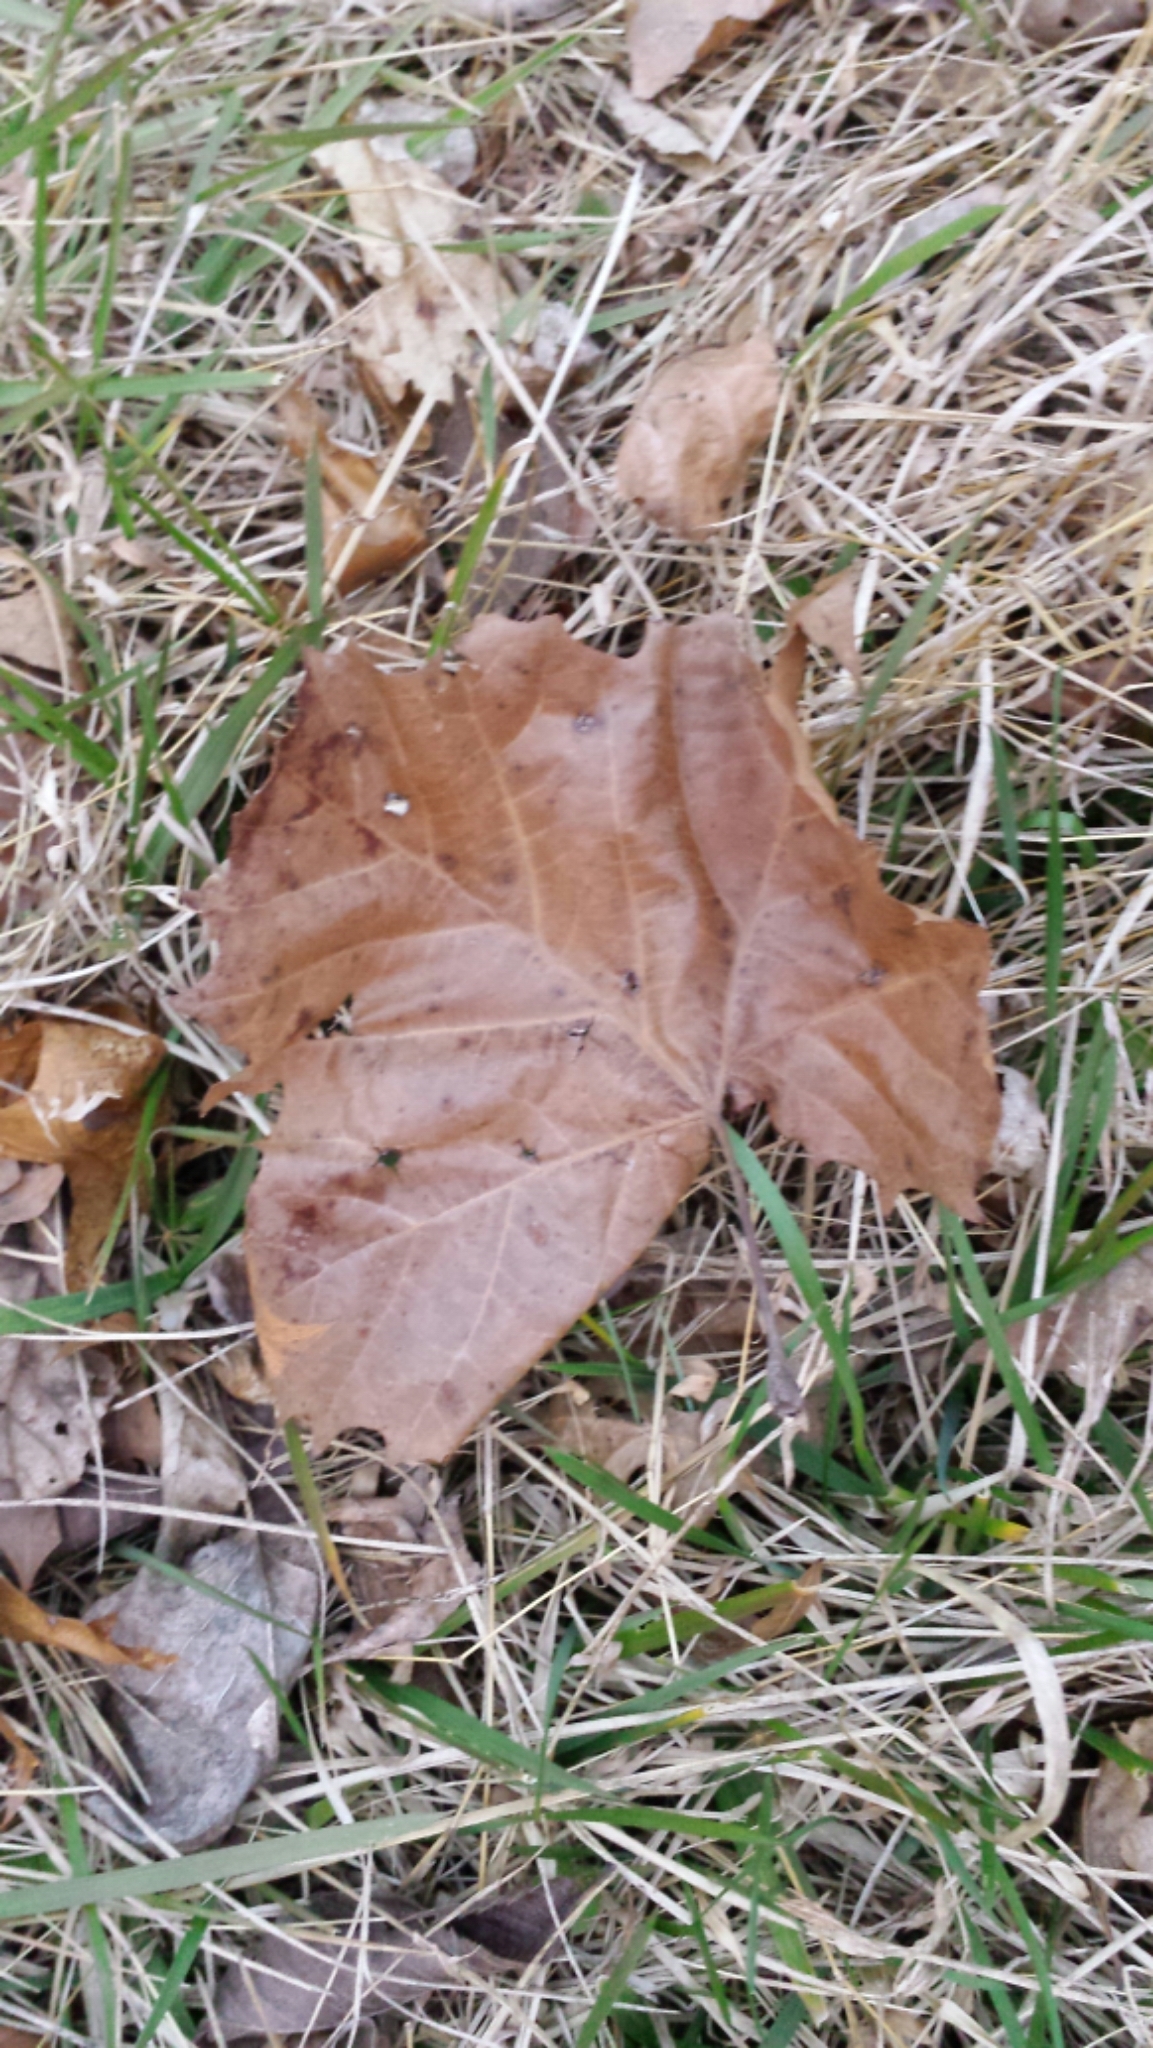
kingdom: Plantae
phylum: Tracheophyta
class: Magnoliopsida
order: Proteales
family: Platanaceae
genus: Platanus
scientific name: Platanus occidentalis
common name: American sycamore
